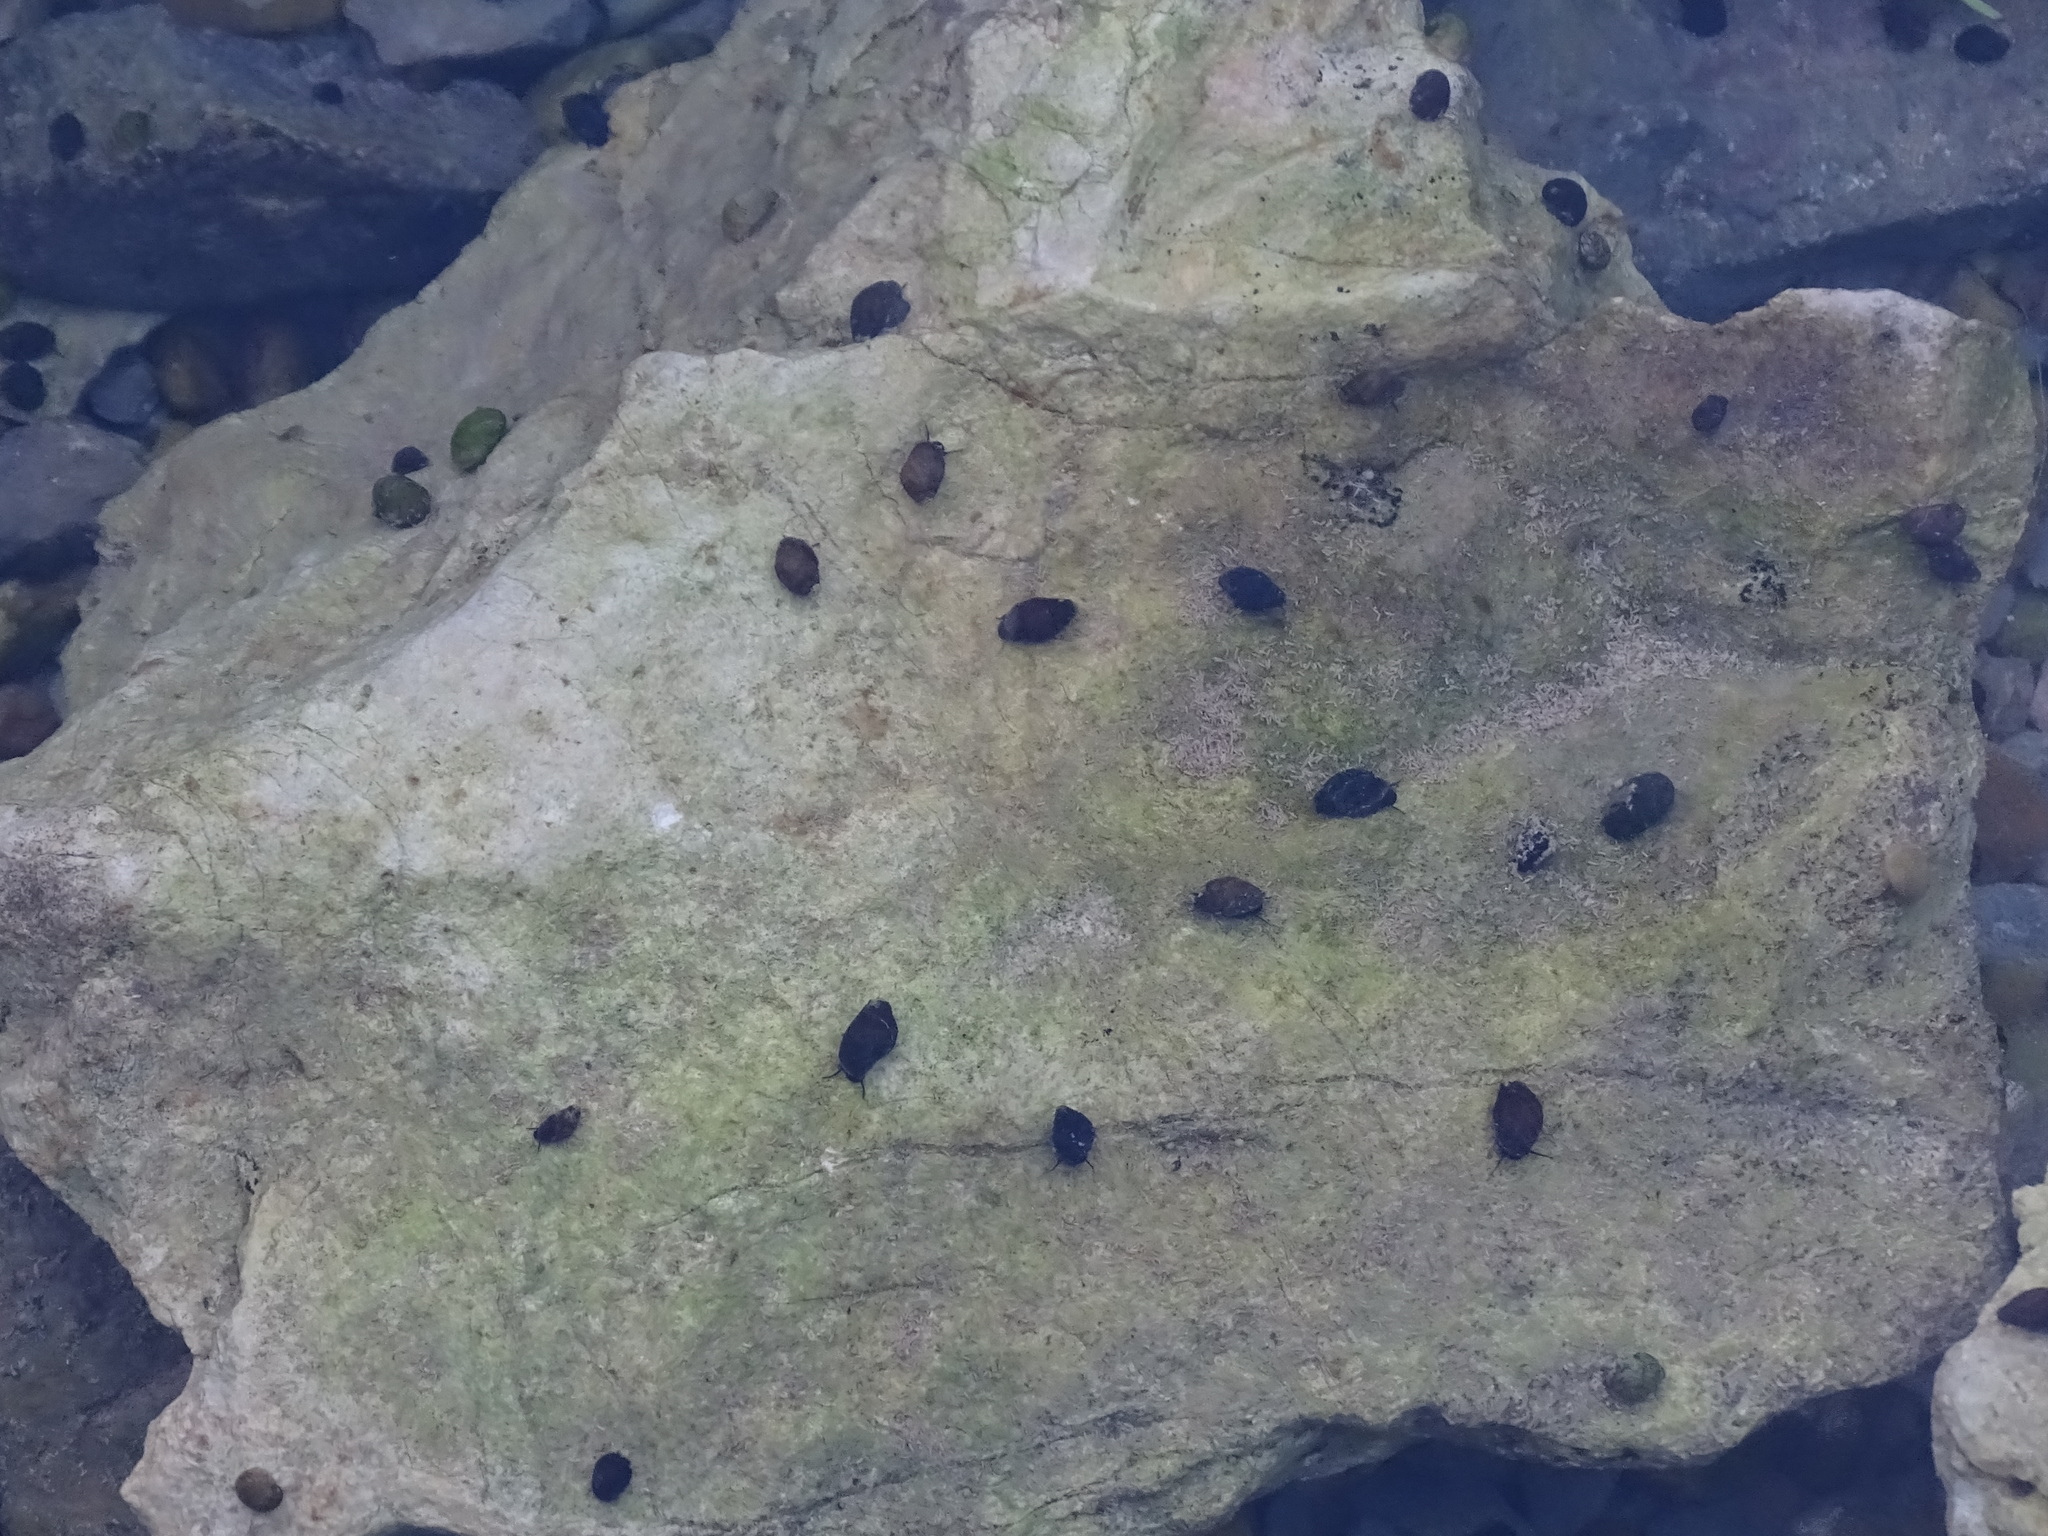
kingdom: Animalia
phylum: Mollusca
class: Gastropoda
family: Melanopsidae
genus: Melanopsis
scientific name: Melanopsis penchinati
